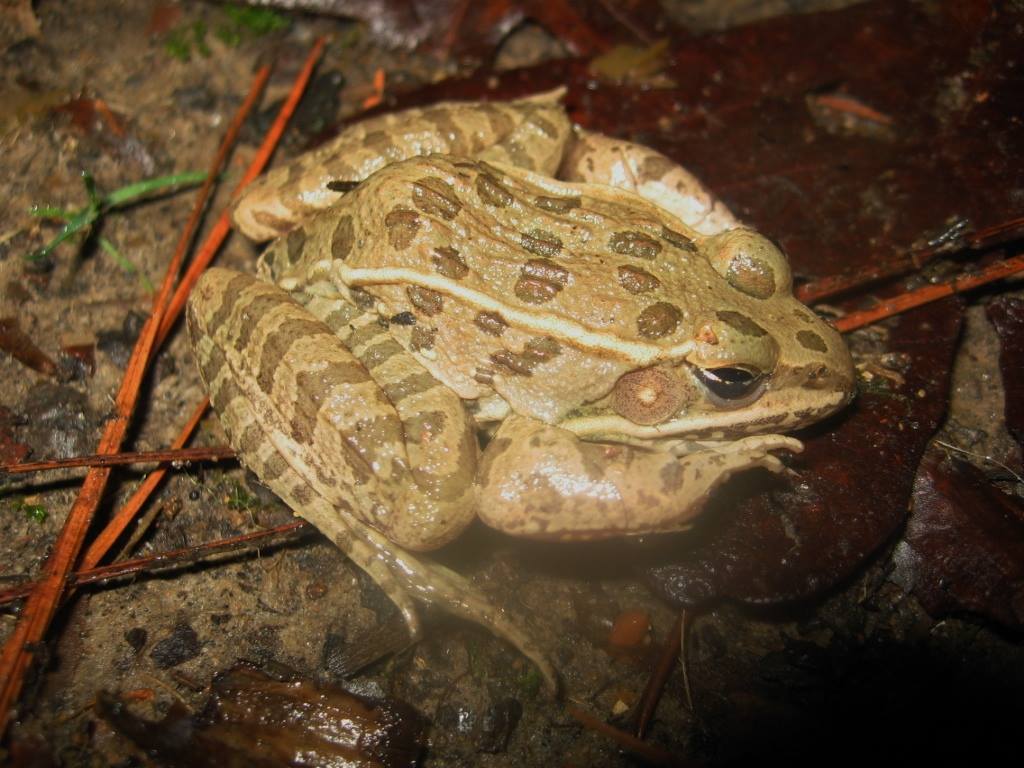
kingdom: Animalia
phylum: Chordata
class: Amphibia
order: Anura
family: Ranidae
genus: Lithobates
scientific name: Lithobates blairi
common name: Plains leopard frog
